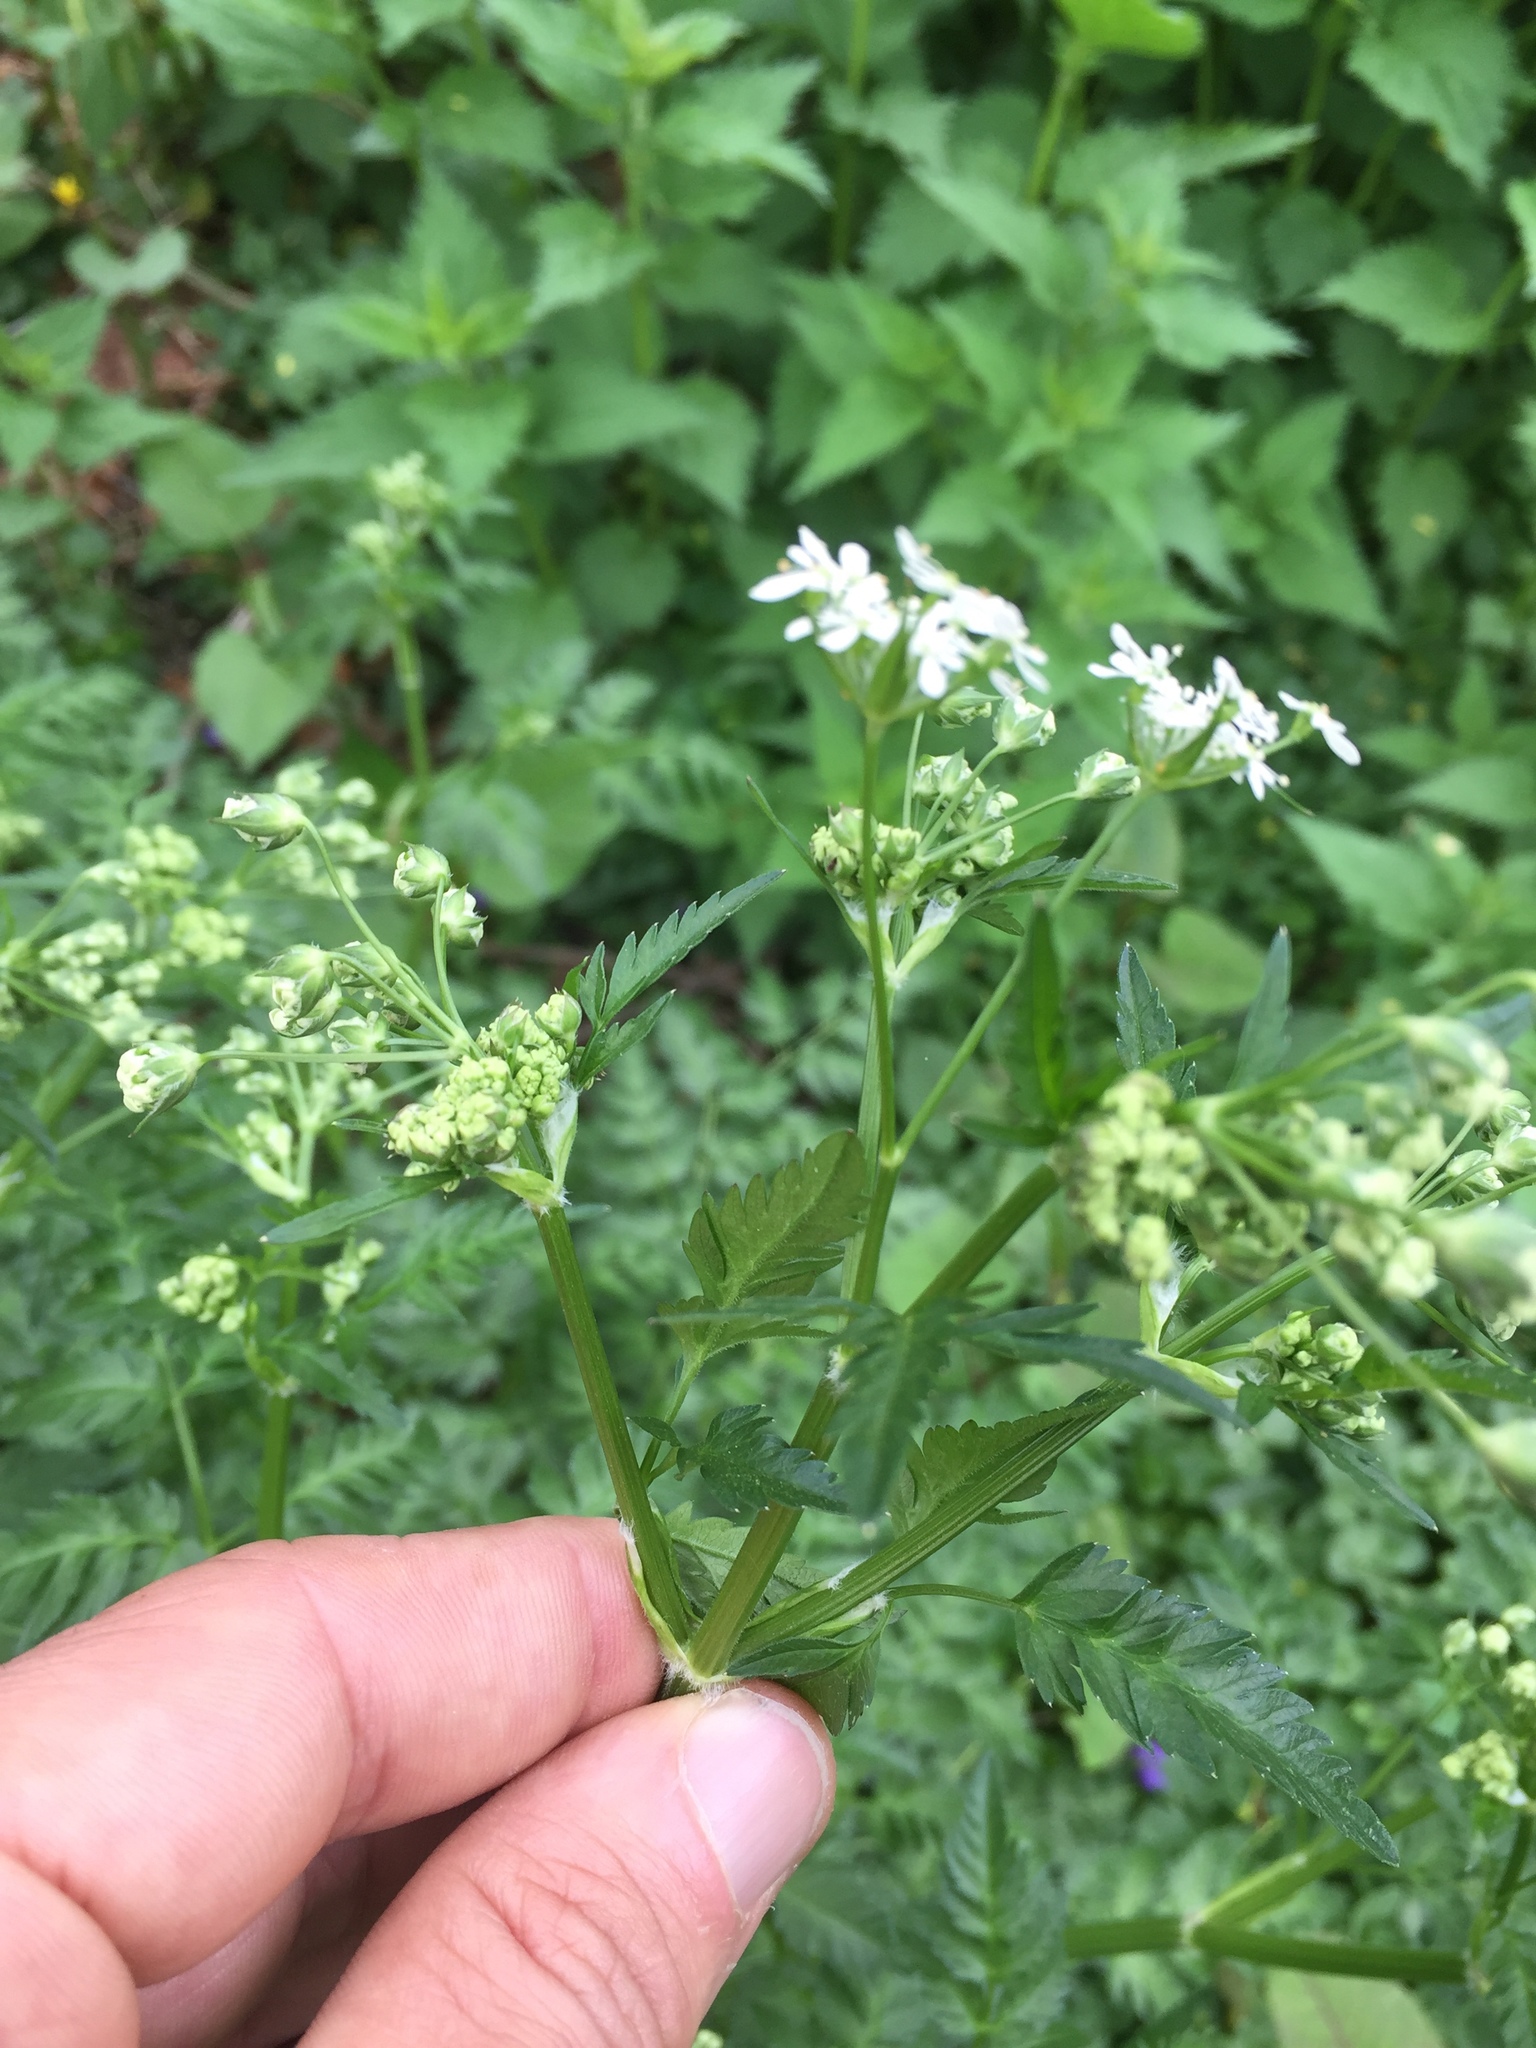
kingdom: Plantae
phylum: Tracheophyta
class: Magnoliopsida
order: Apiales
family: Apiaceae
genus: Anthriscus
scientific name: Anthriscus sylvestris
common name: Cow parsley
